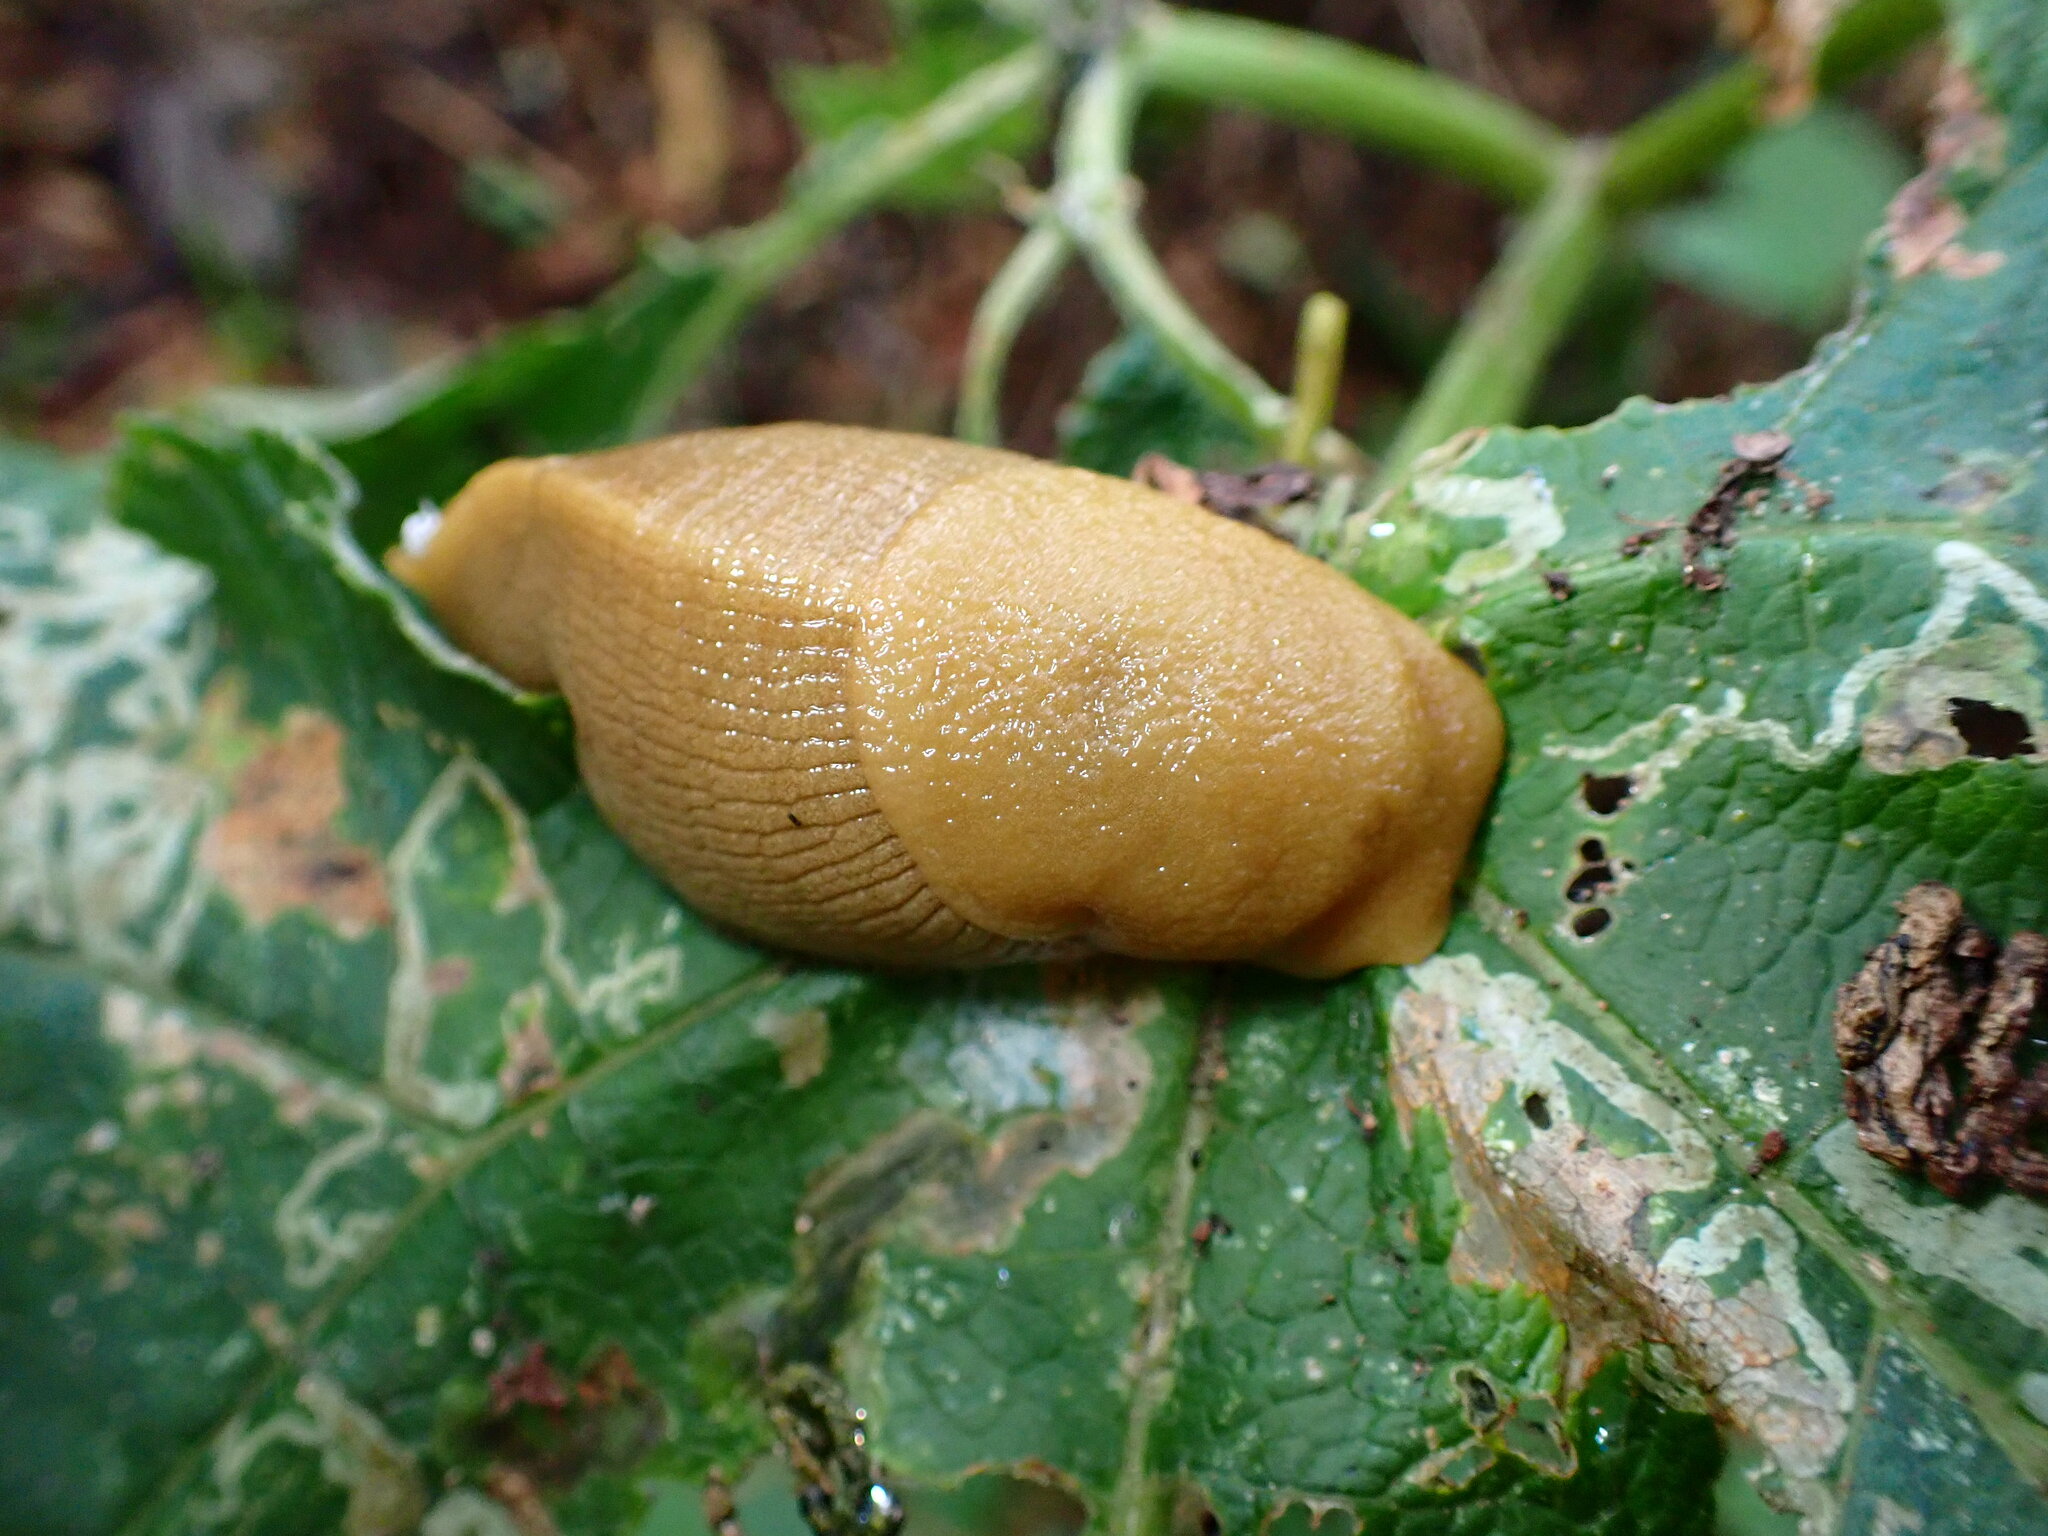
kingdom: Animalia
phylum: Mollusca
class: Gastropoda
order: Stylommatophora
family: Ariolimacidae
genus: Ariolimax
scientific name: Ariolimax buttoni
